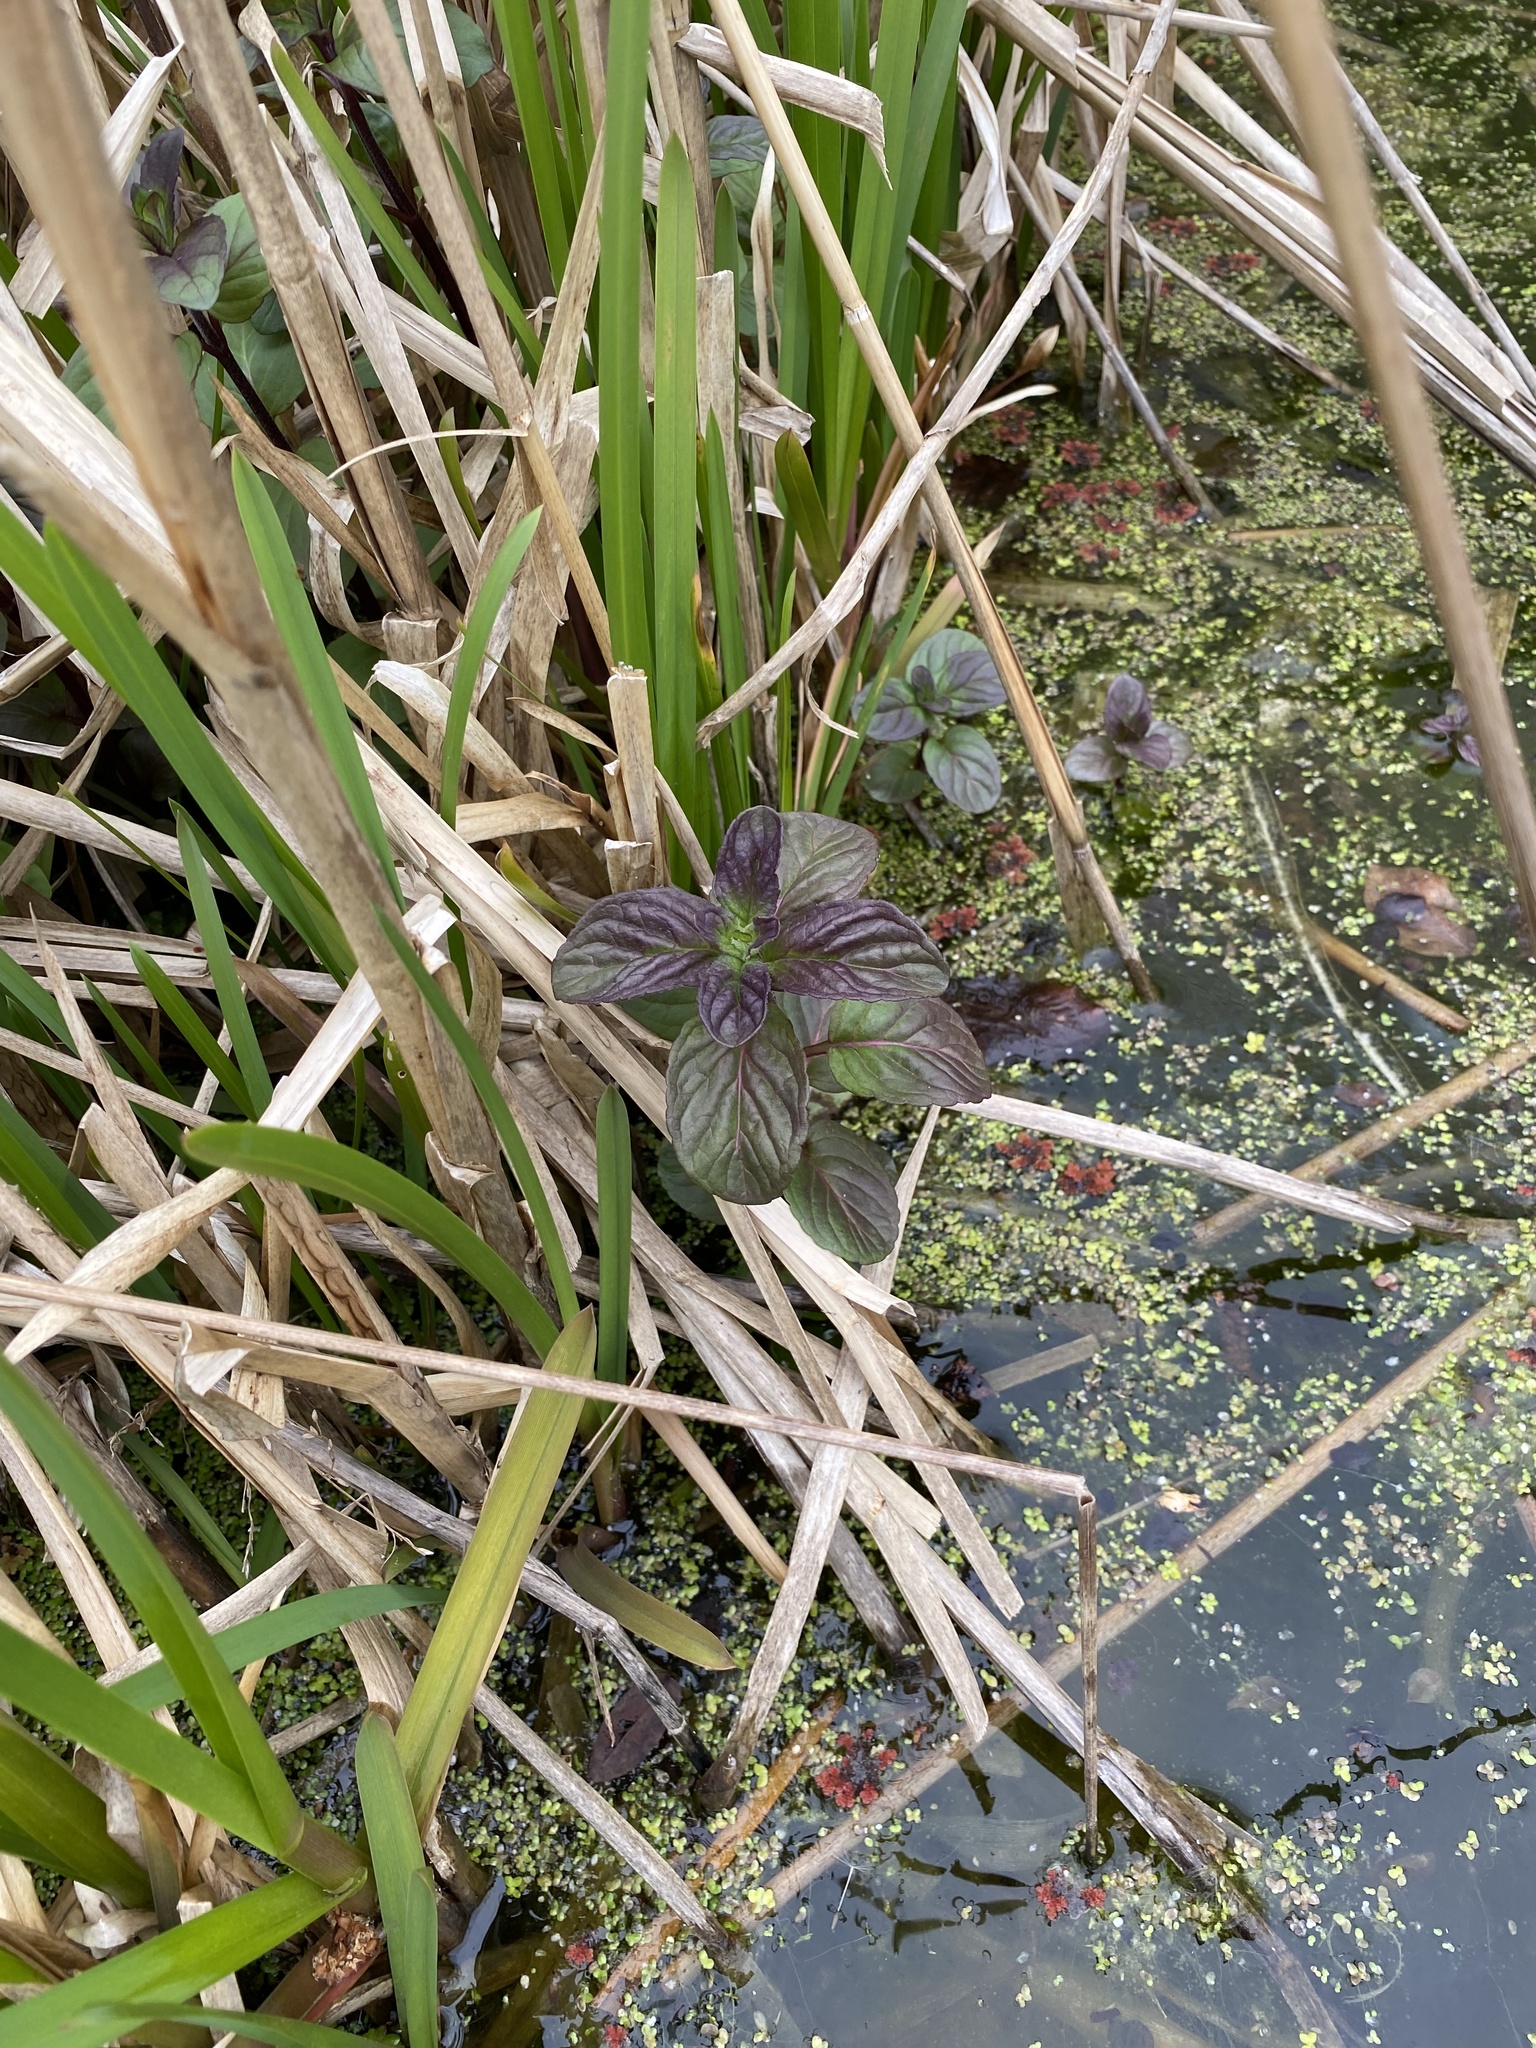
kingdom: Plantae
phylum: Tracheophyta
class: Magnoliopsida
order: Lamiales
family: Lamiaceae
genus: Mentha
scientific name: Mentha aquatica
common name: Water mint
